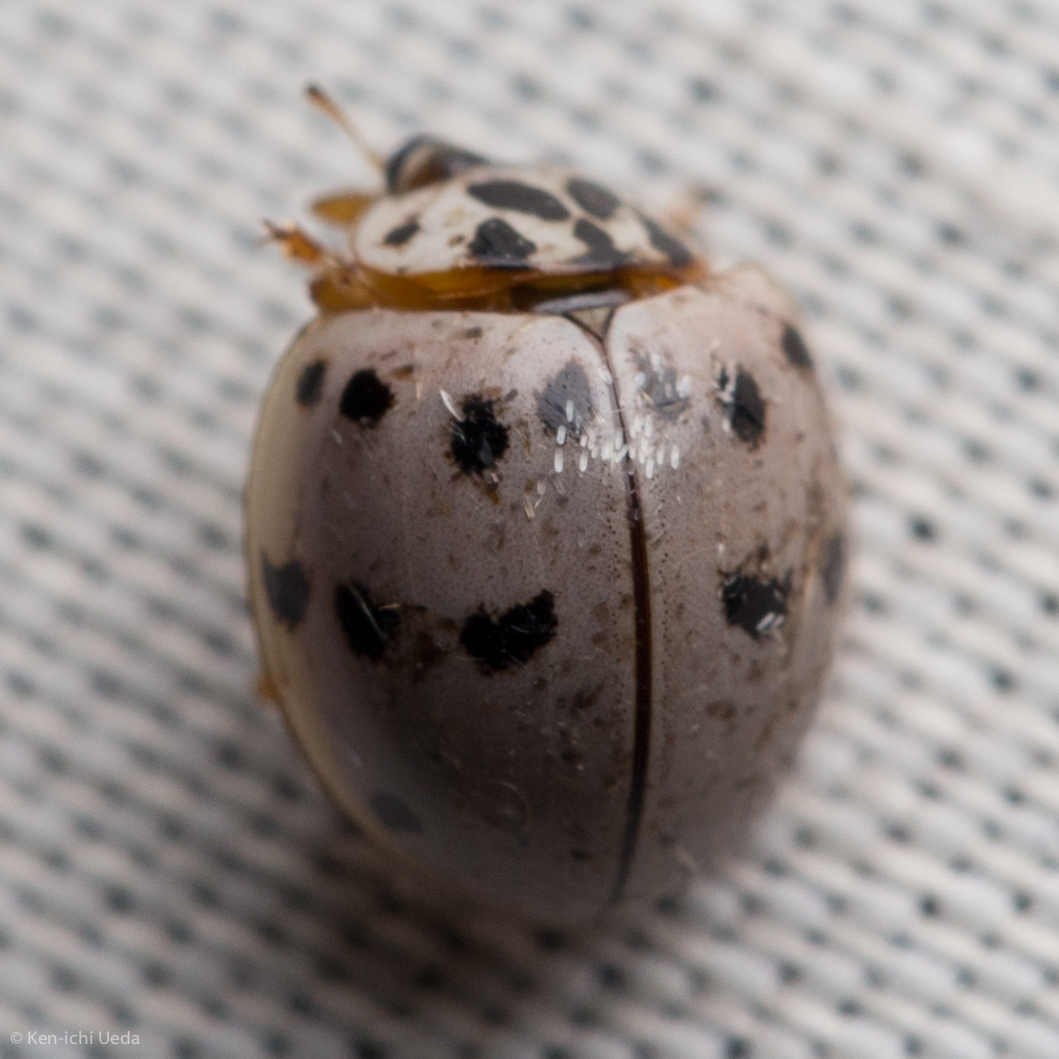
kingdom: Animalia
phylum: Arthropoda
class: Insecta
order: Coleoptera
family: Coccinellidae
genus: Olla
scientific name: Olla v-nigrum
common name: Ashy gray lady beetle
